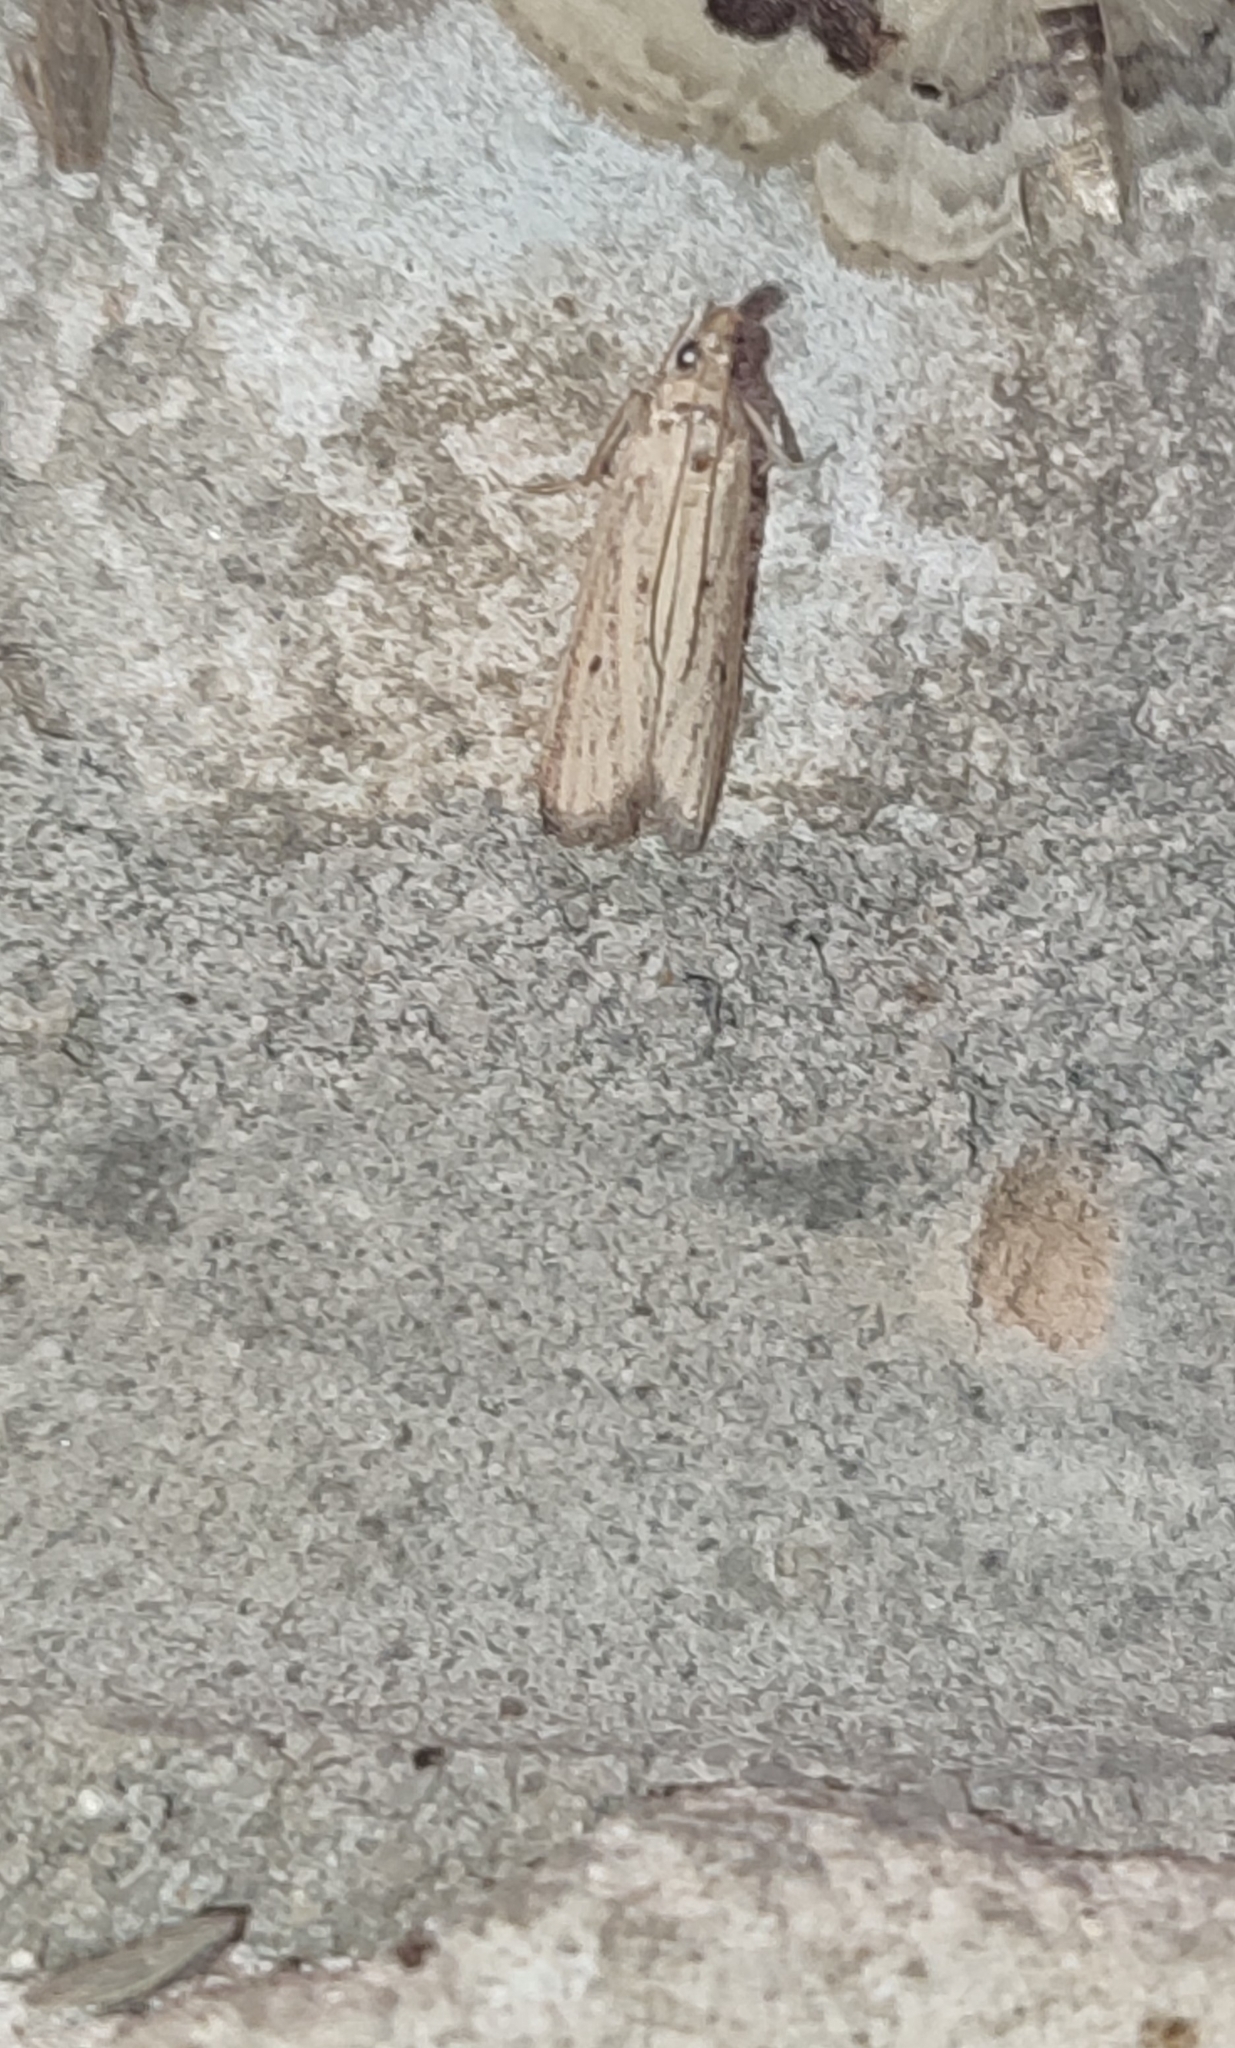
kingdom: Animalia
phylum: Arthropoda
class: Insecta
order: Lepidoptera
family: Pyralidae
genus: Ematheudes
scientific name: Ematheudes punctellus
